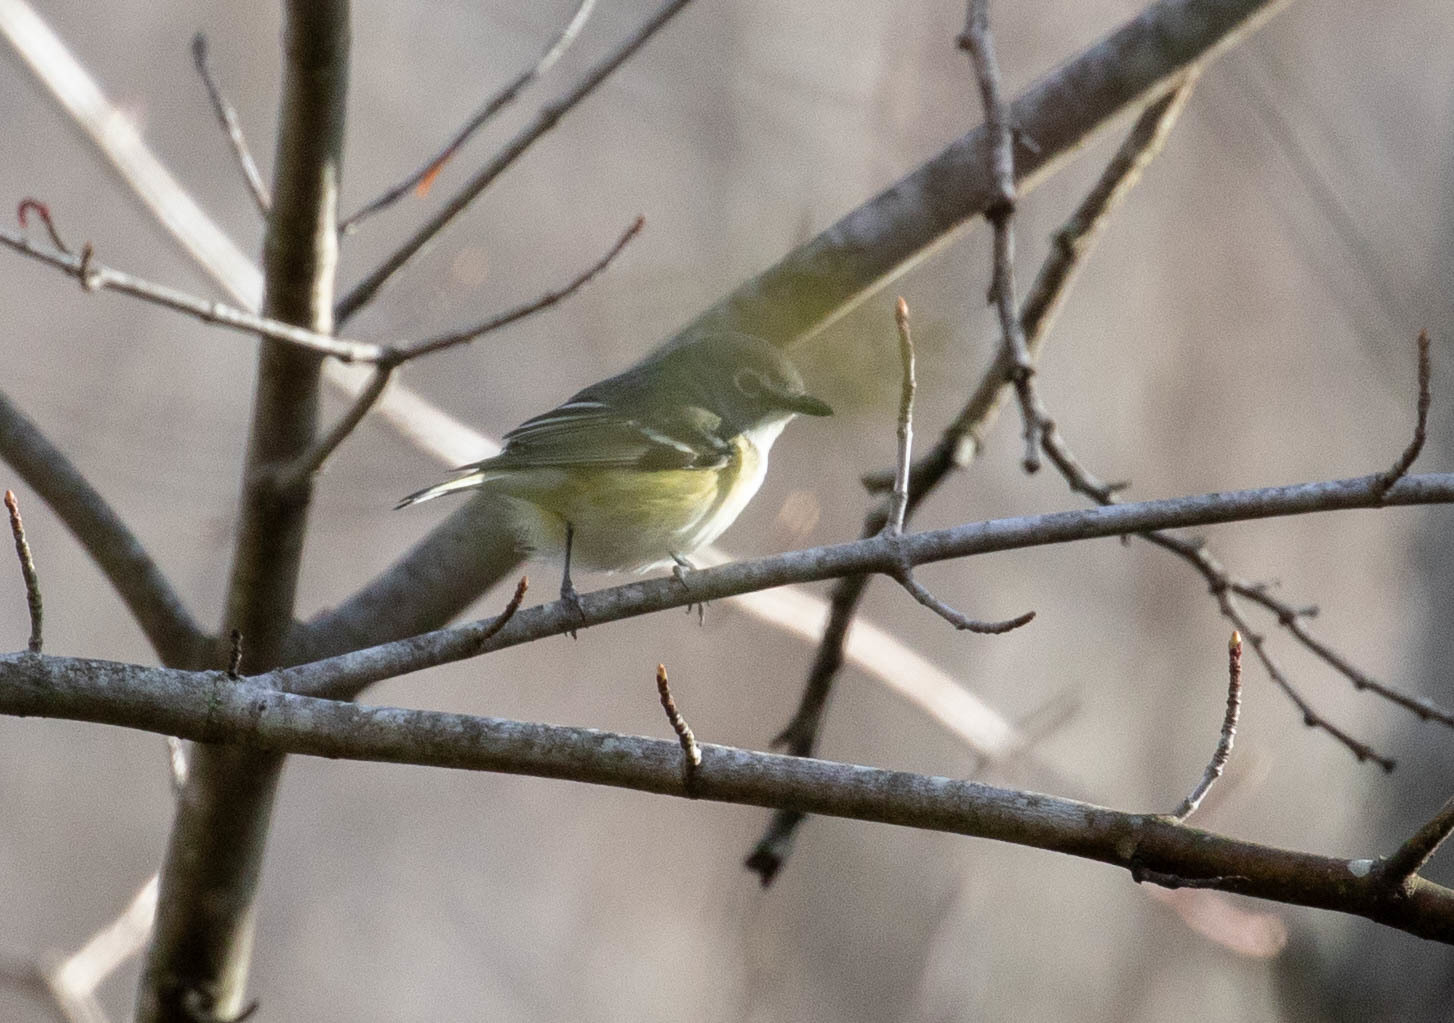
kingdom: Animalia
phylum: Chordata
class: Aves
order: Passeriformes
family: Vireonidae
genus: Vireo
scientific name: Vireo solitarius
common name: Blue-headed vireo
